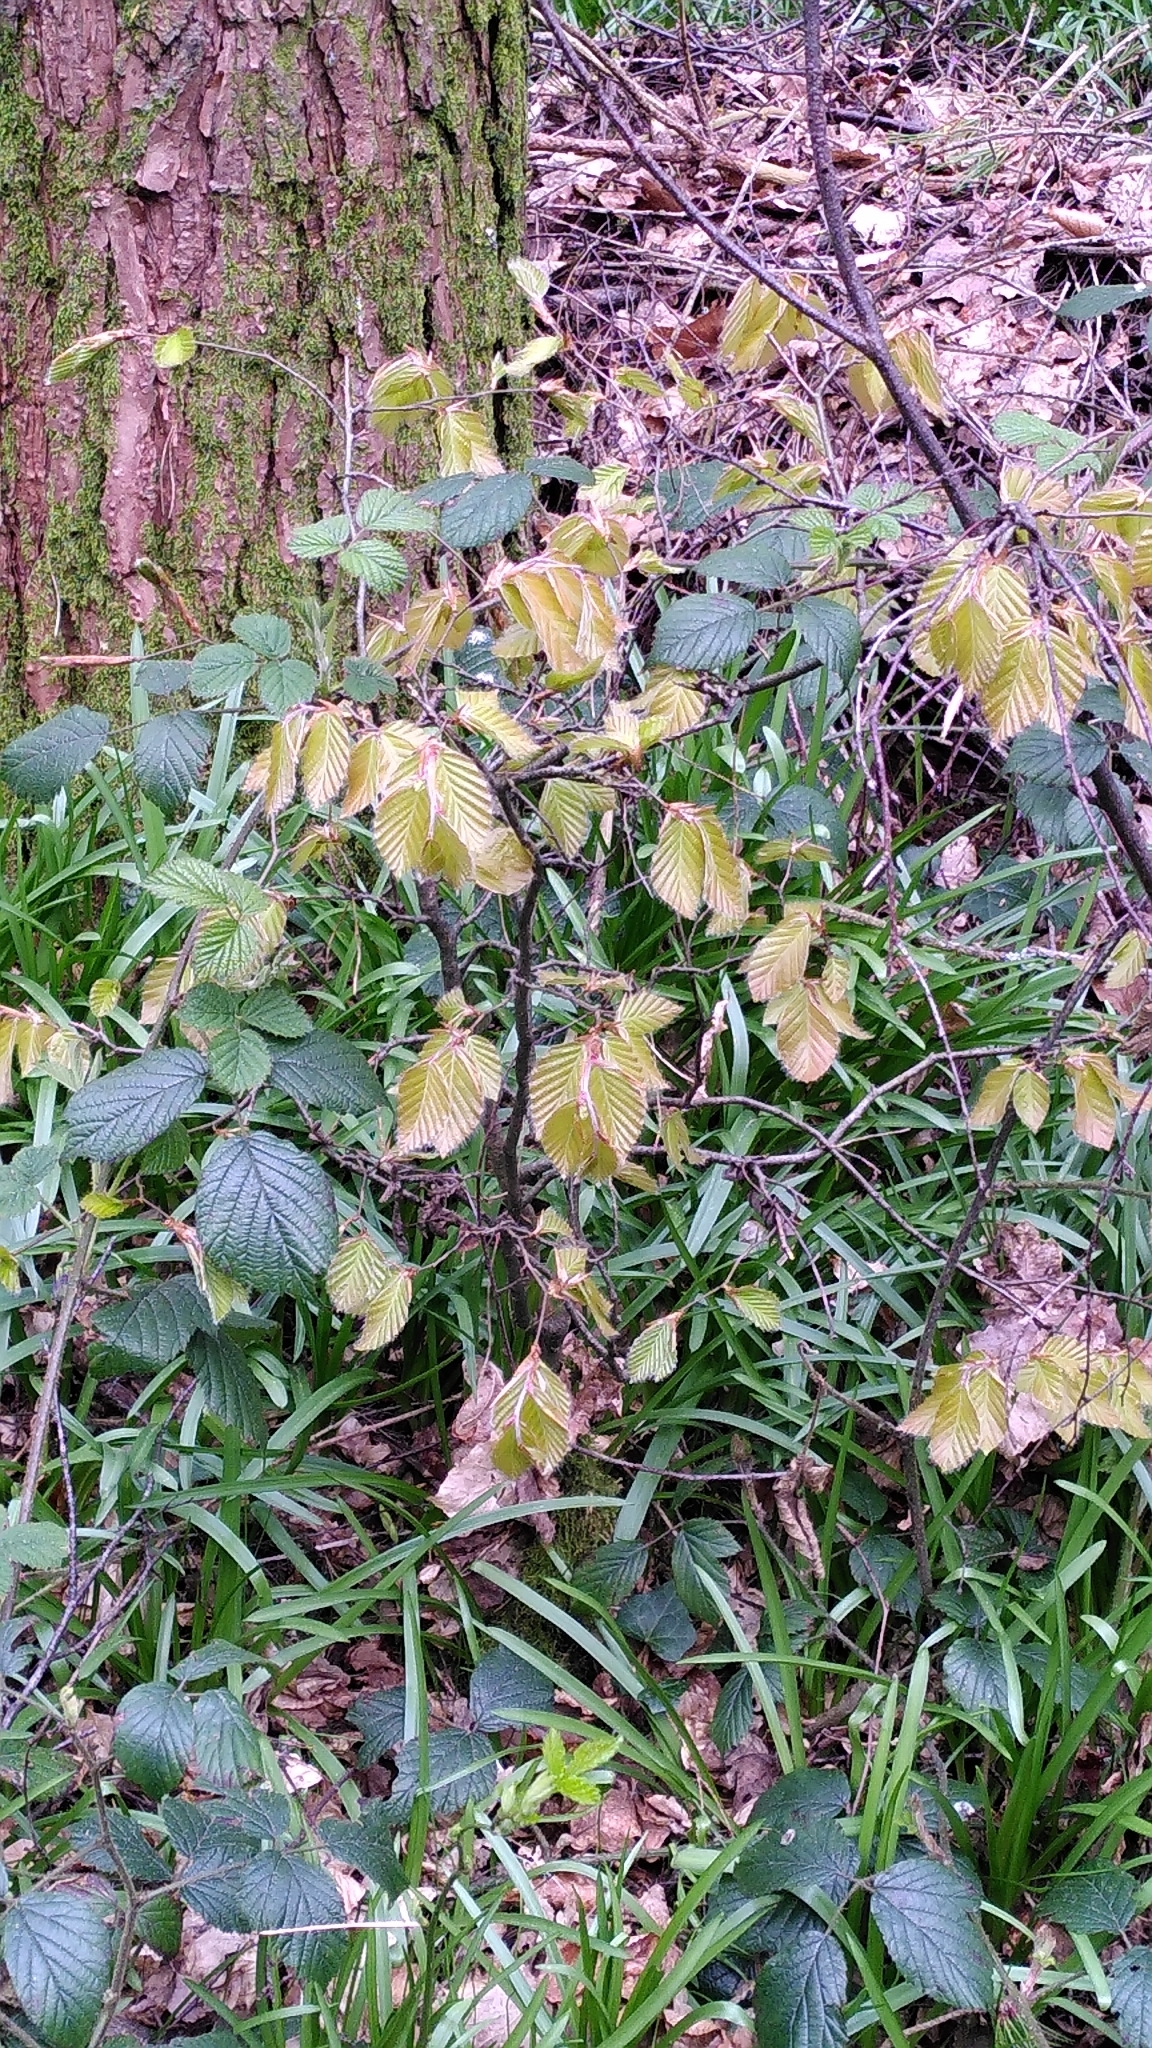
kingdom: Plantae
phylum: Tracheophyta
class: Magnoliopsida
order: Fagales
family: Fagaceae
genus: Fagus
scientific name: Fagus sylvatica
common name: Beech
